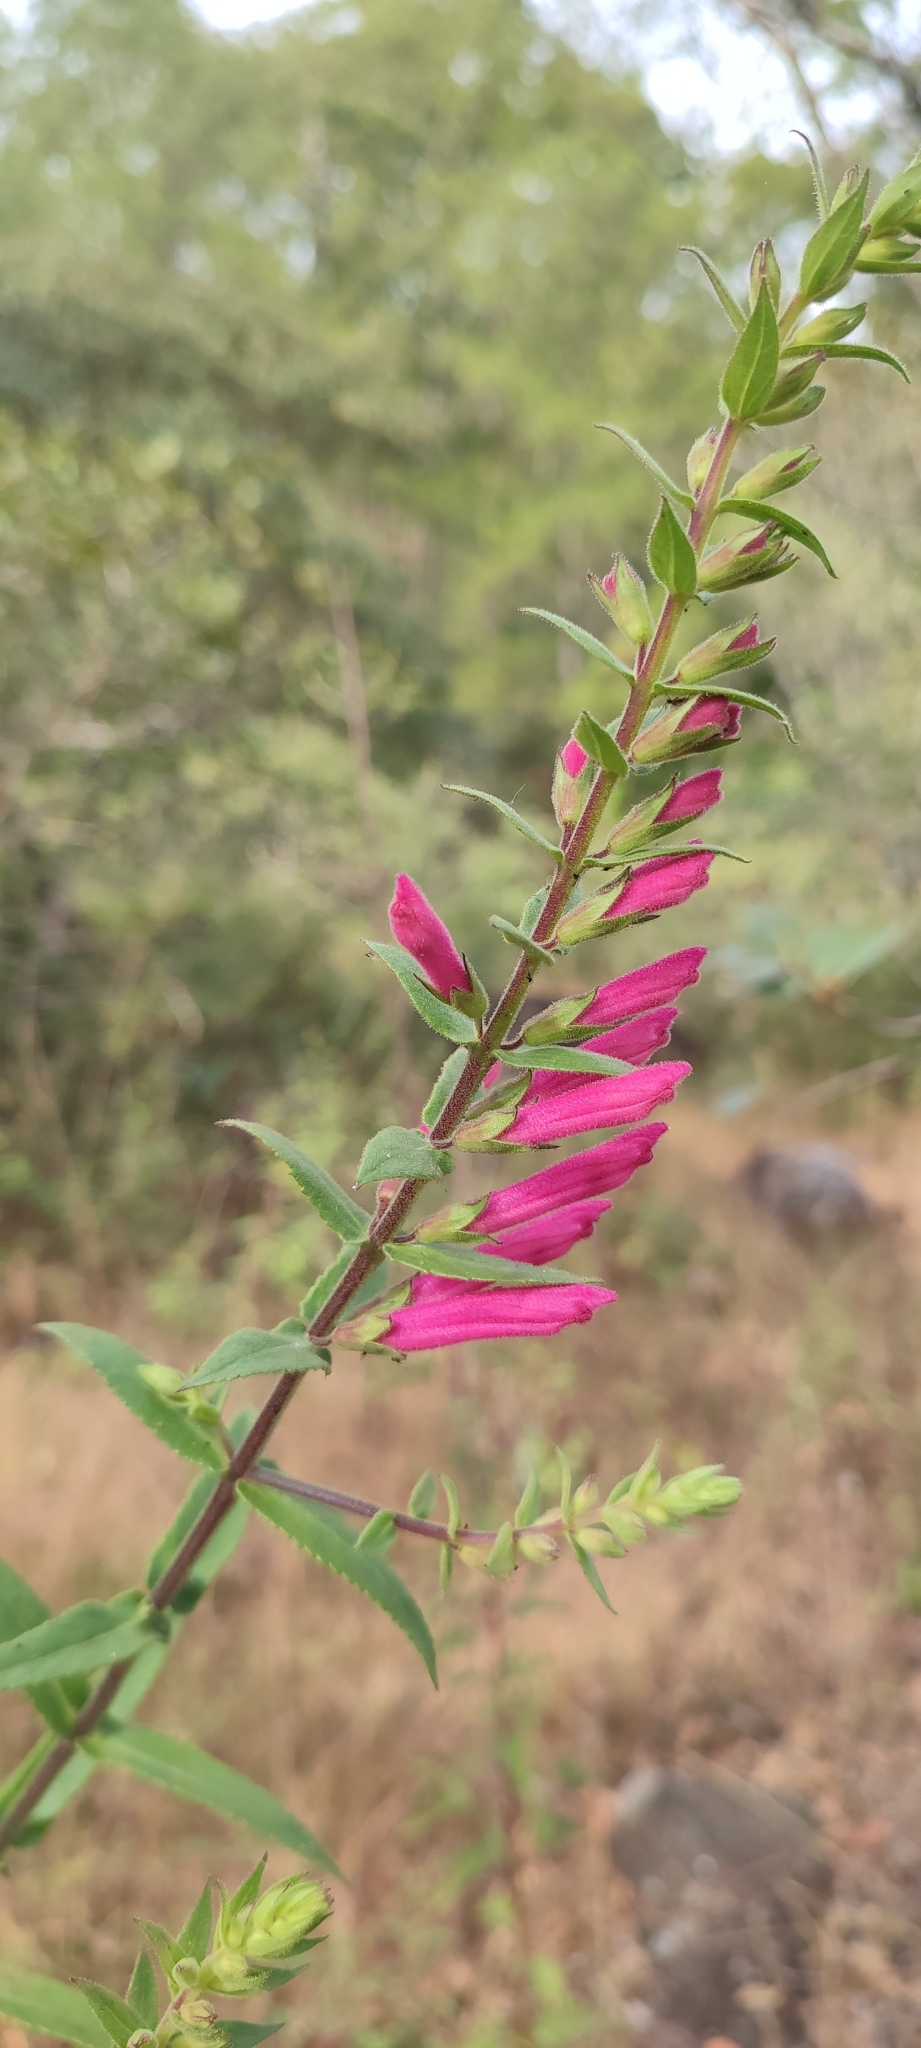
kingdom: Plantae
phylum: Tracheophyta
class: Magnoliopsida
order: Lamiales
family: Orobanchaceae
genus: Lamourouxia
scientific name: Lamourouxia pacifica
